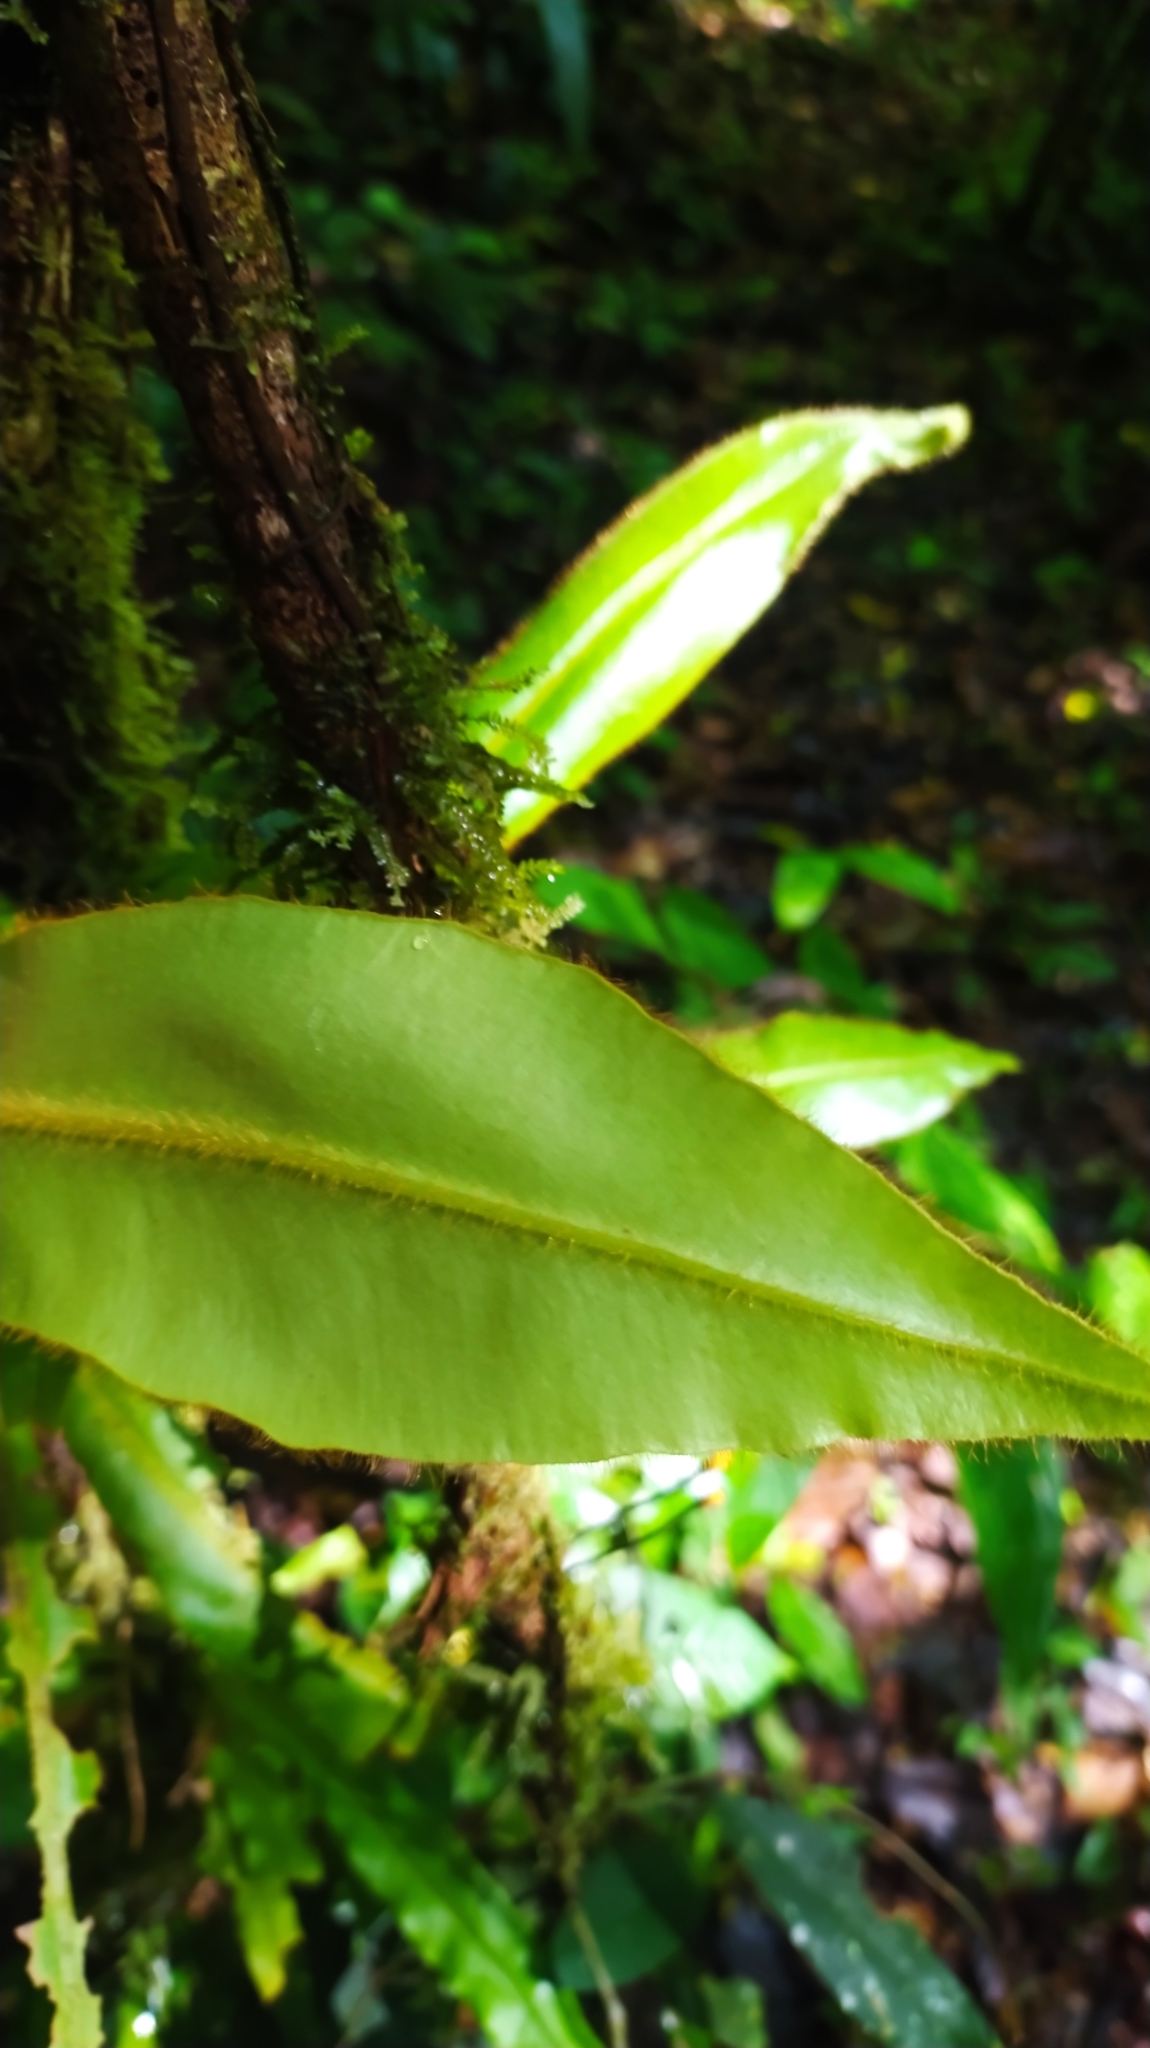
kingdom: Plantae
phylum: Tracheophyta
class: Polypodiopsida
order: Polypodiales
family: Dryopteridaceae
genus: Elaphoglossum
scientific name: Elaphoglossum raywaense
